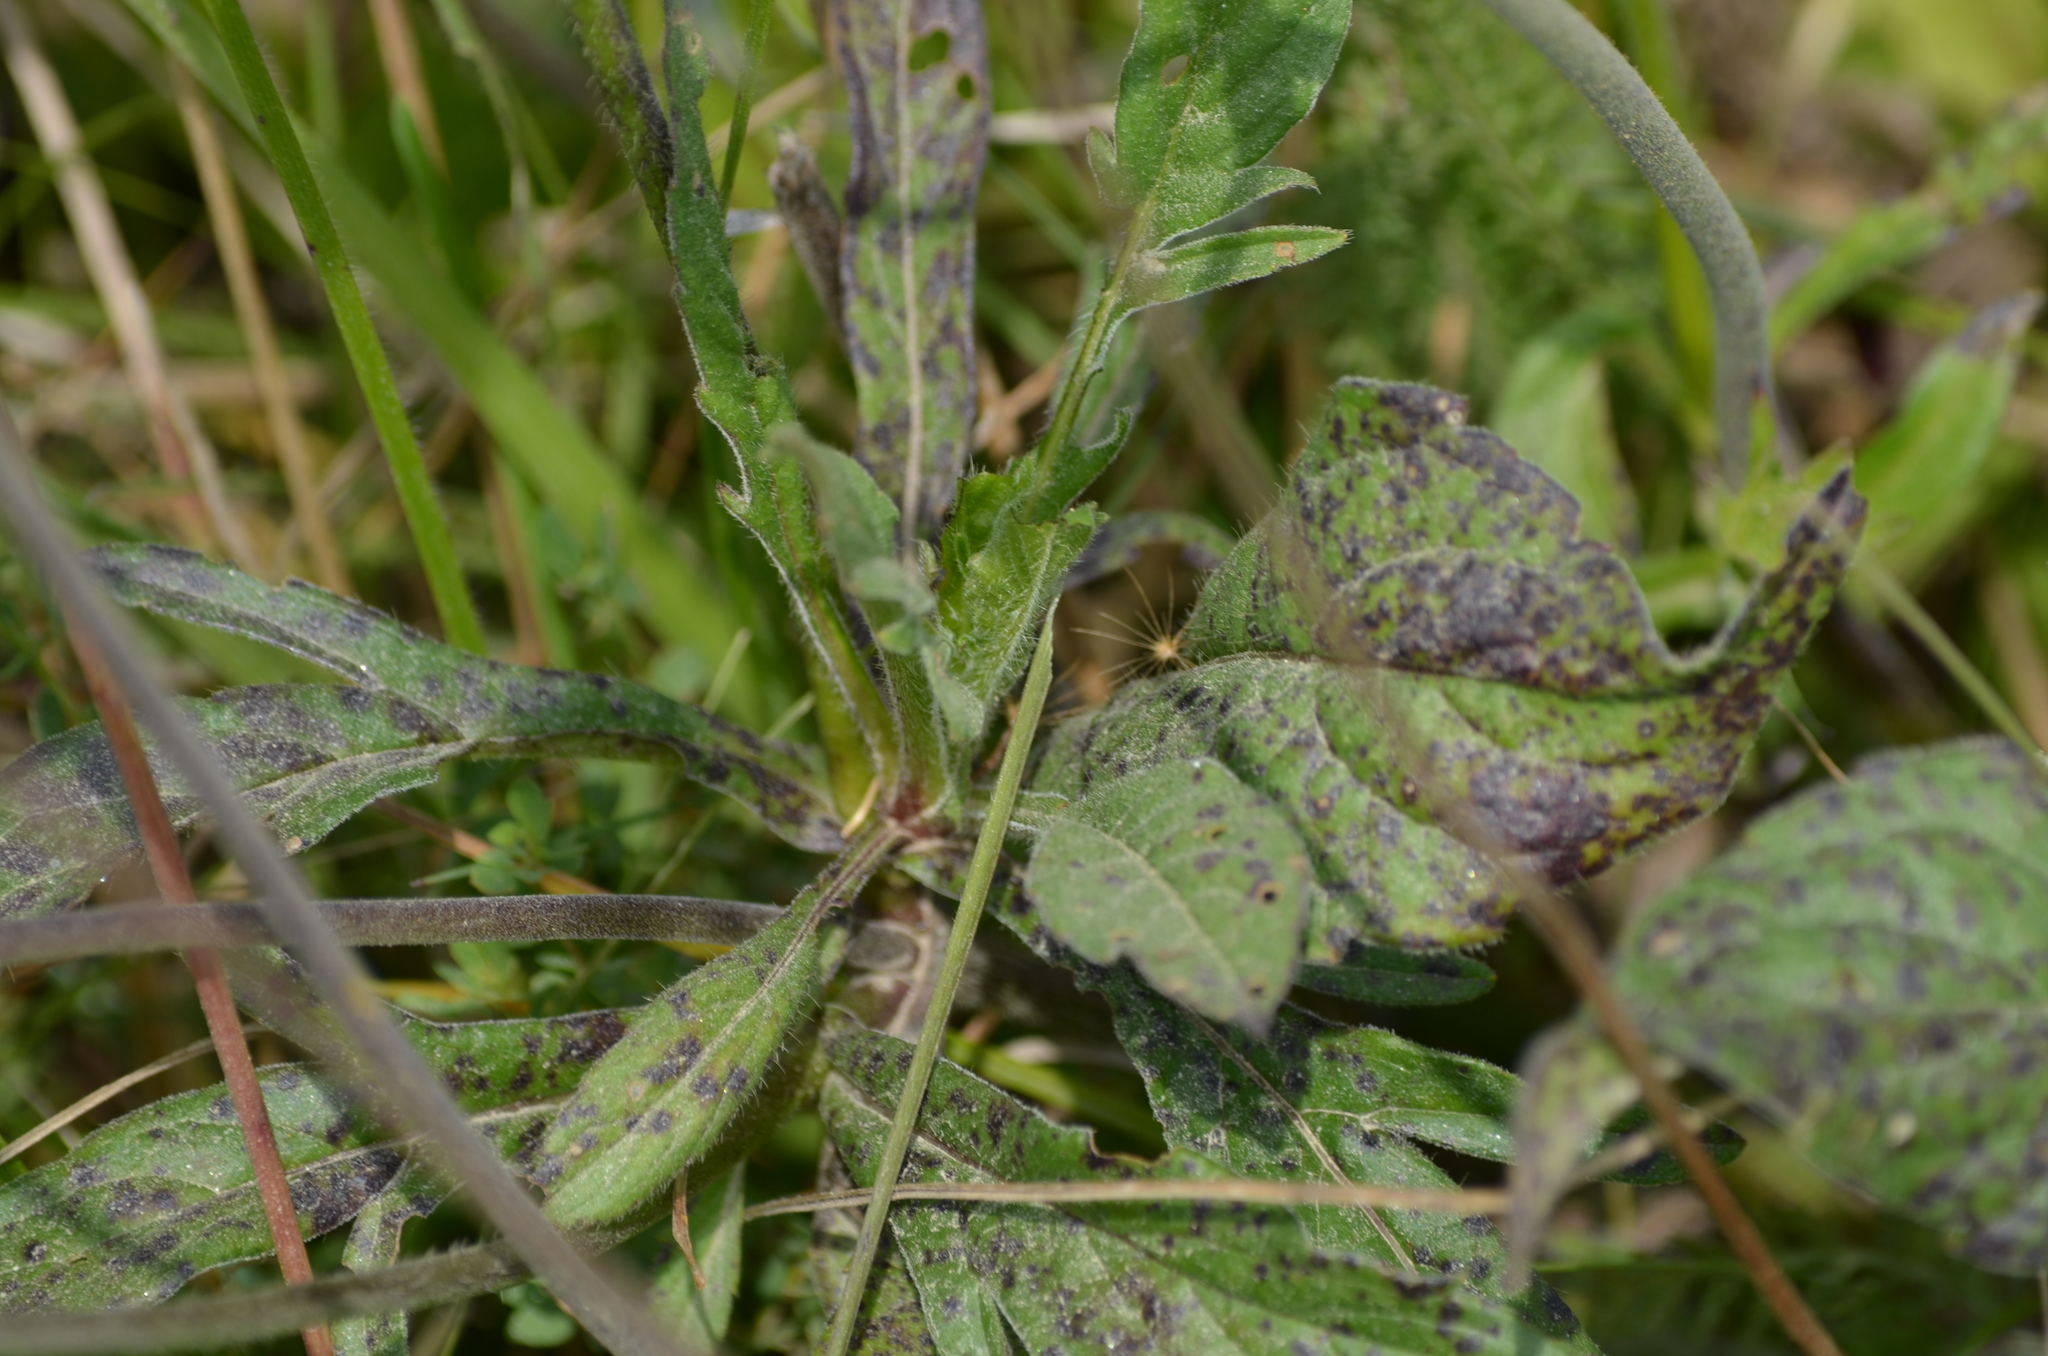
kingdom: Plantae
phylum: Tracheophyta
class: Magnoliopsida
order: Dipsacales
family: Caprifoliaceae
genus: Knautia
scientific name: Knautia arvensis
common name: Field scabiosa
